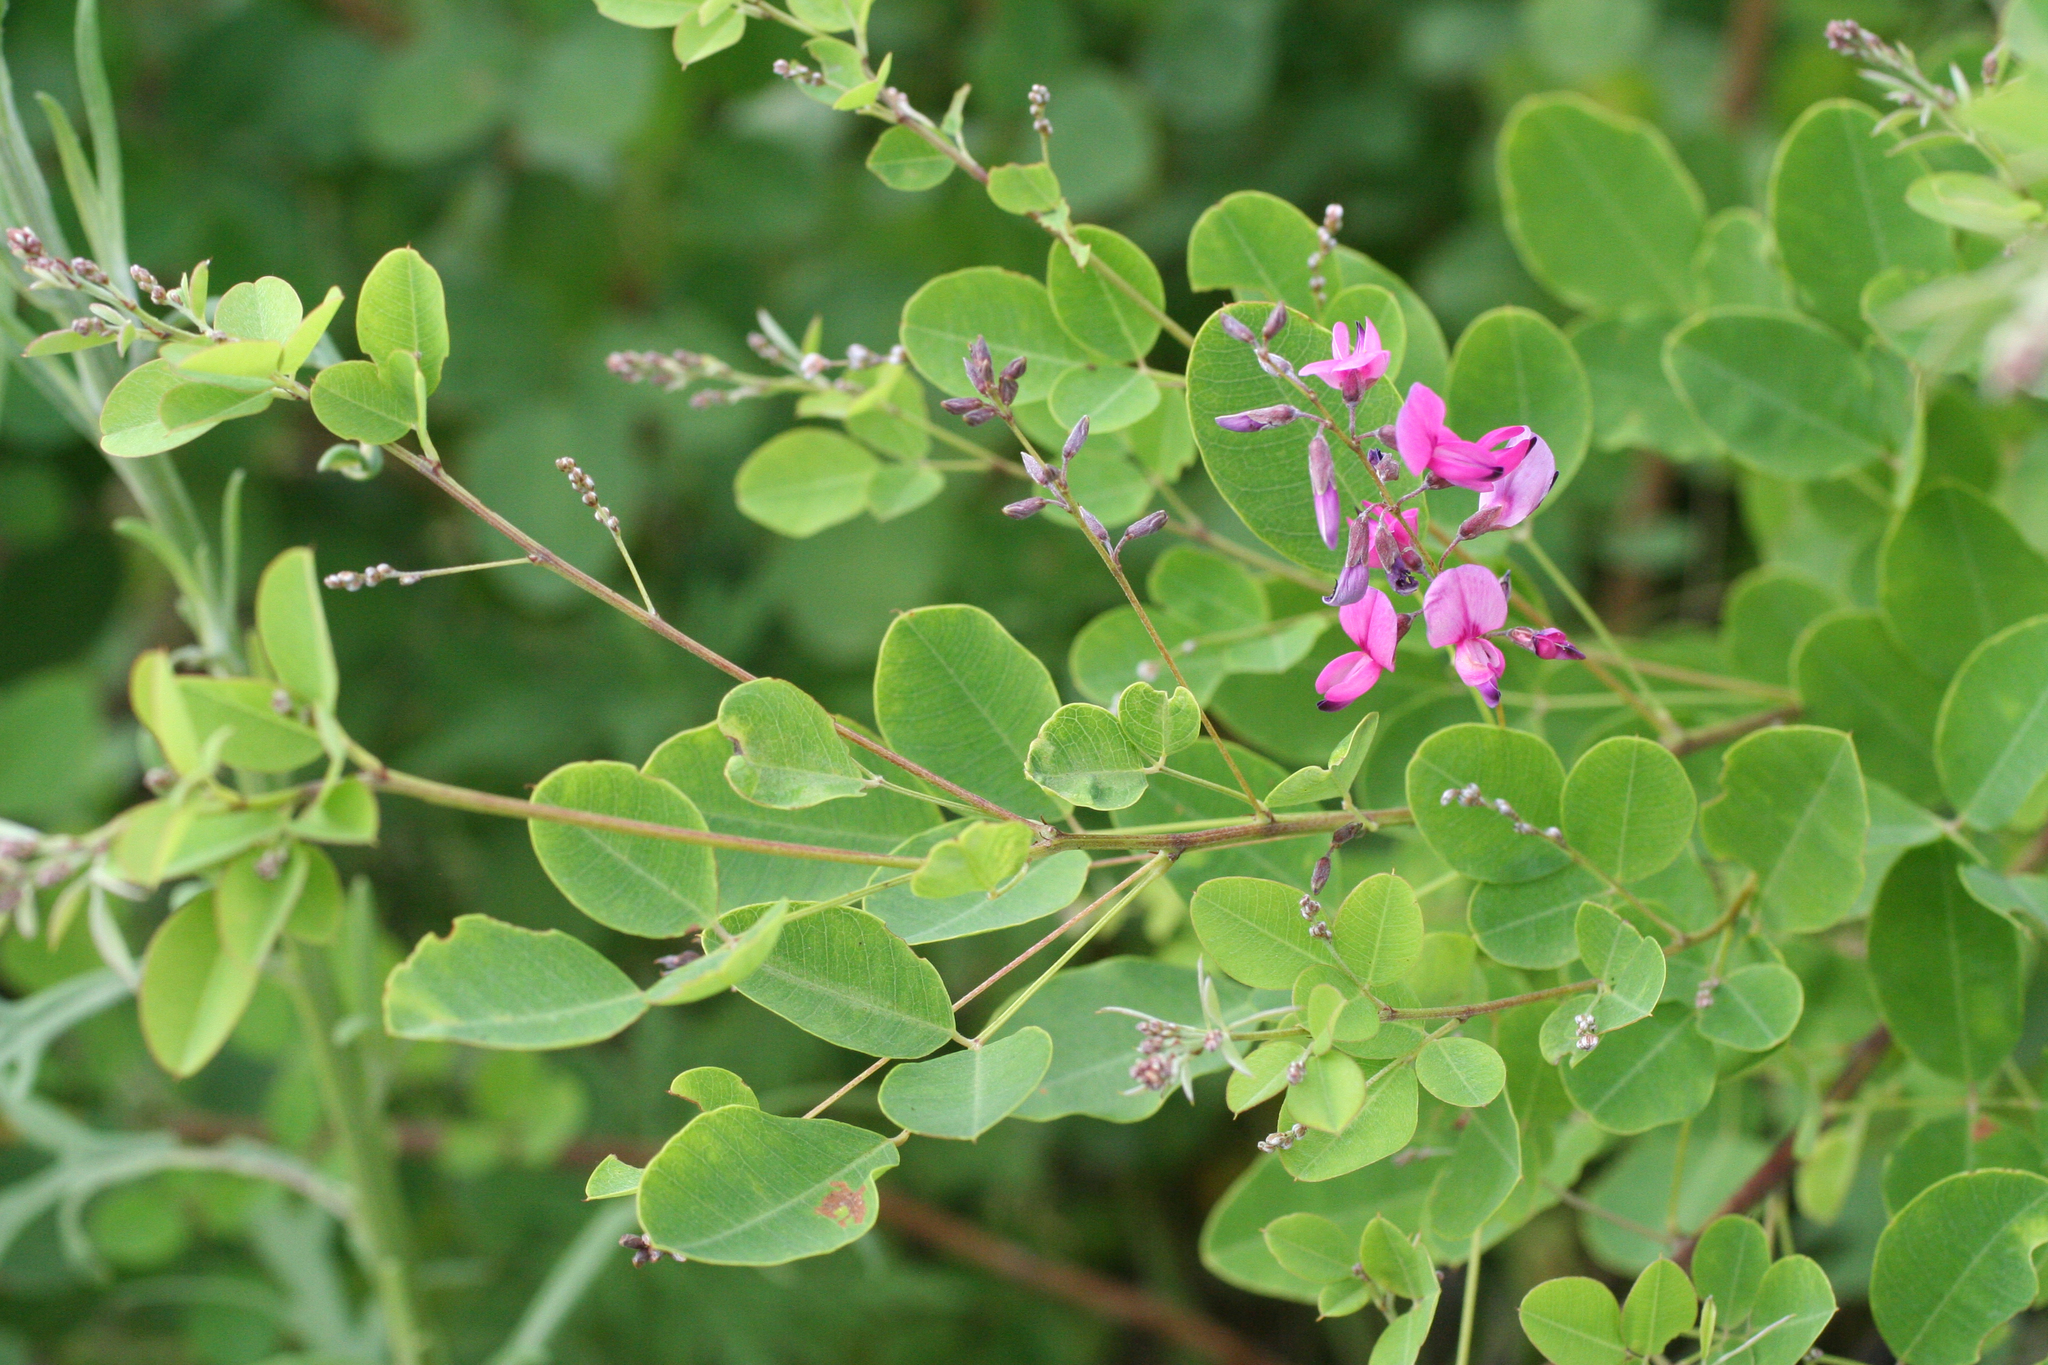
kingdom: Plantae
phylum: Tracheophyta
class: Magnoliopsida
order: Fabales
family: Fabaceae
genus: Lespedeza
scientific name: Lespedeza bicolor
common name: Shrub lespedeza
